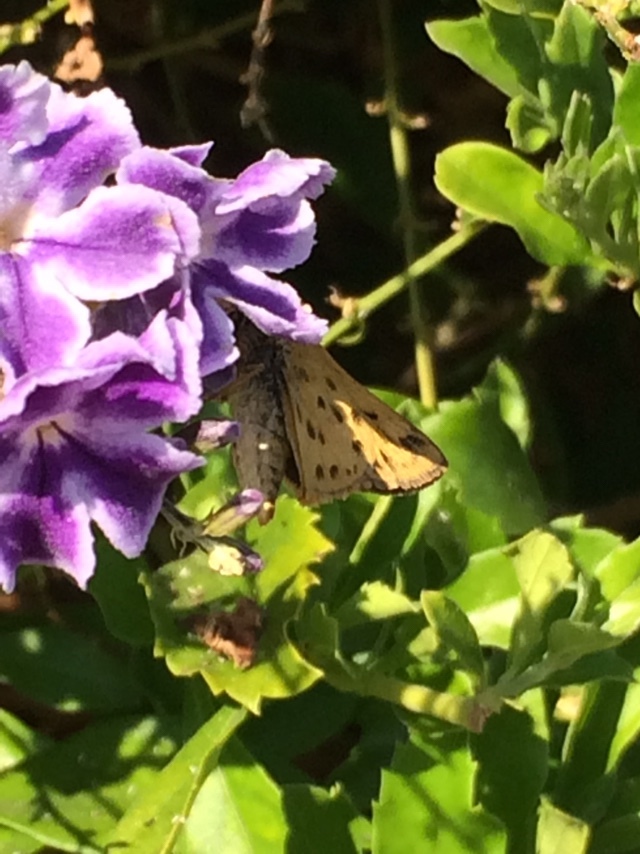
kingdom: Animalia
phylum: Arthropoda
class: Insecta
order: Lepidoptera
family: Hesperiidae
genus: Hylephila
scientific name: Hylephila phyleus
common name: Fiery skipper
